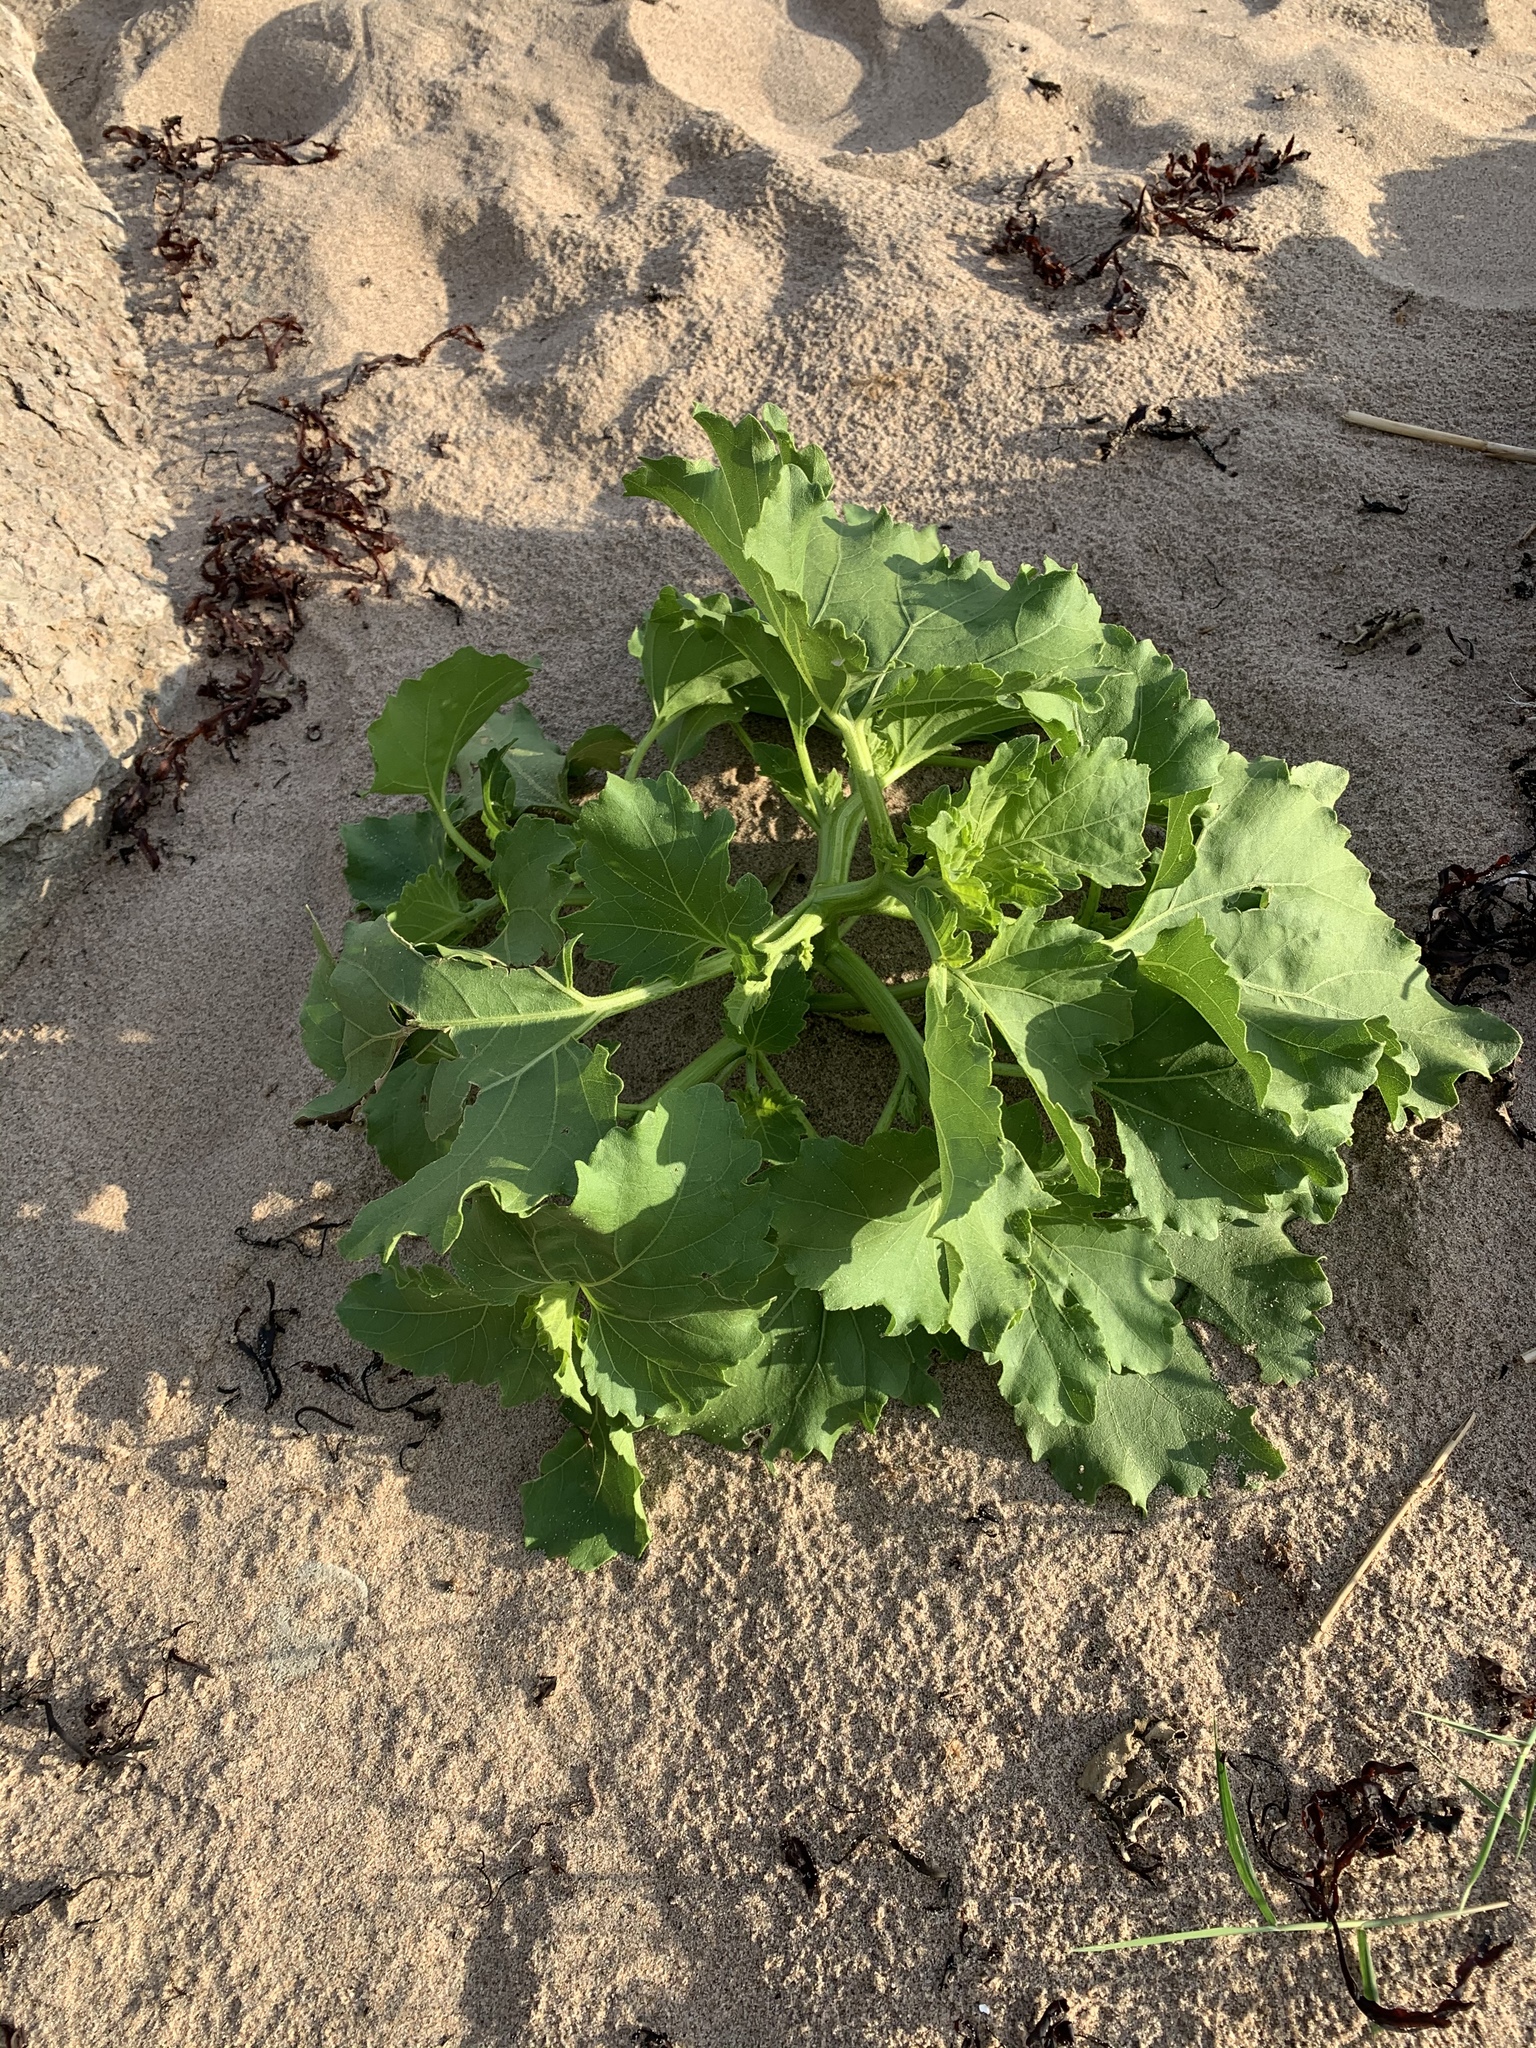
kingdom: Plantae
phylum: Tracheophyta
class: Magnoliopsida
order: Asterales
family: Asteraceae
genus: Xanthium
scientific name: Xanthium strumarium
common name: Rough cocklebur
